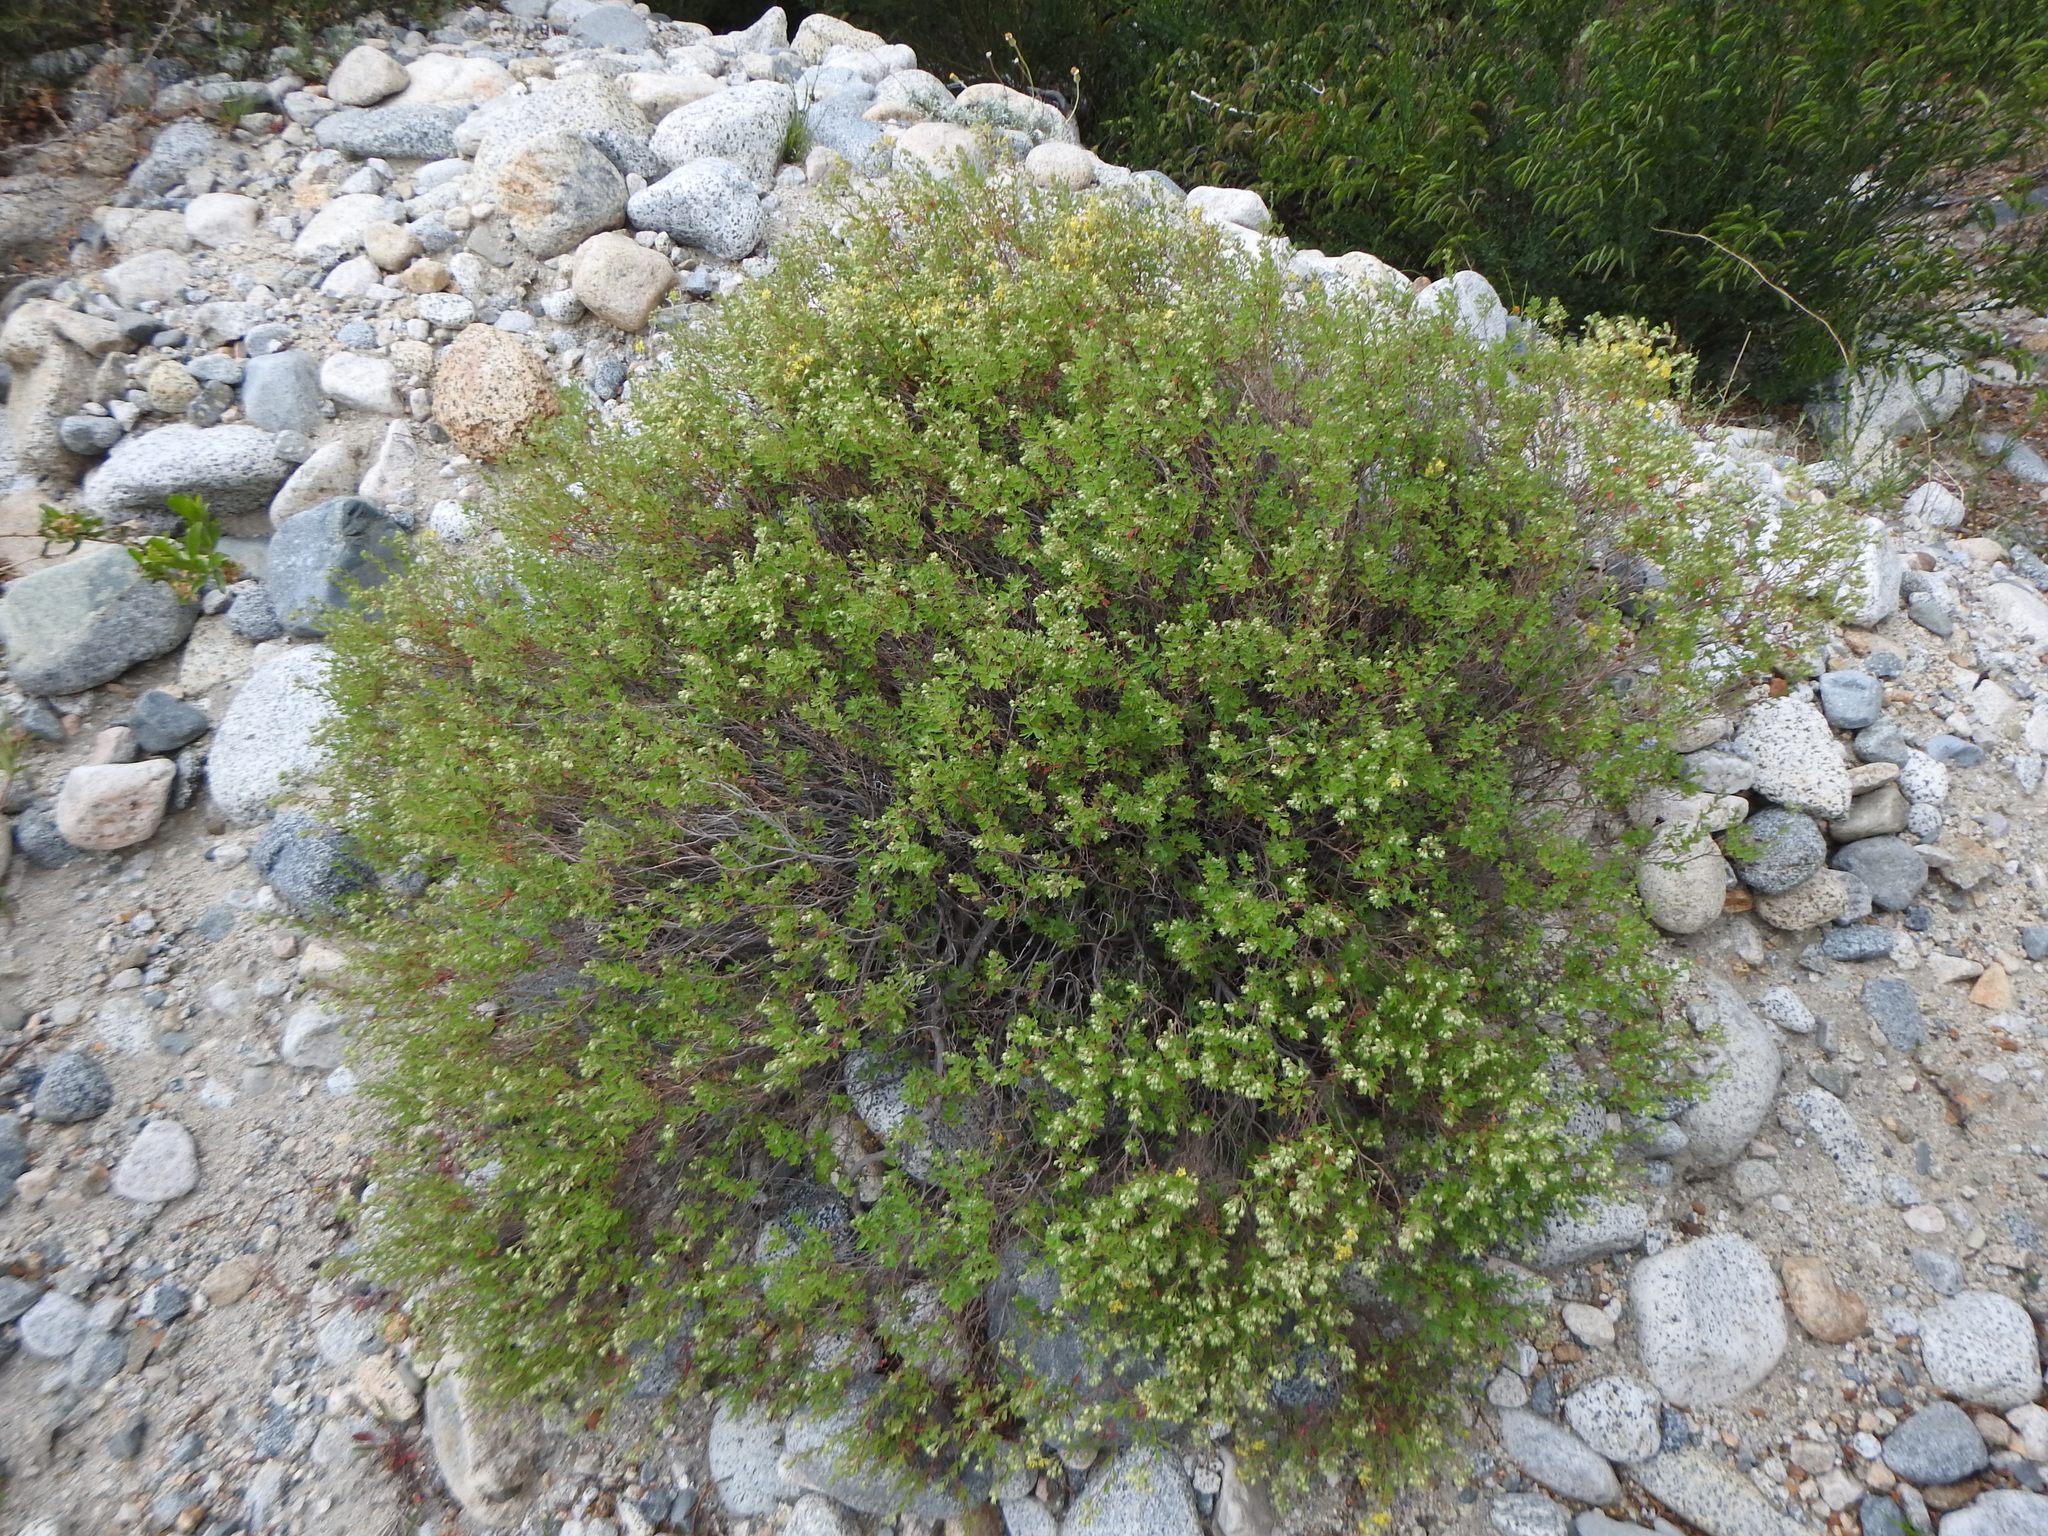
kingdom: Plantae
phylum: Tracheophyta
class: Magnoliopsida
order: Geraniales
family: Vivianiaceae
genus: Wendtia
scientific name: Wendtia gracilis
